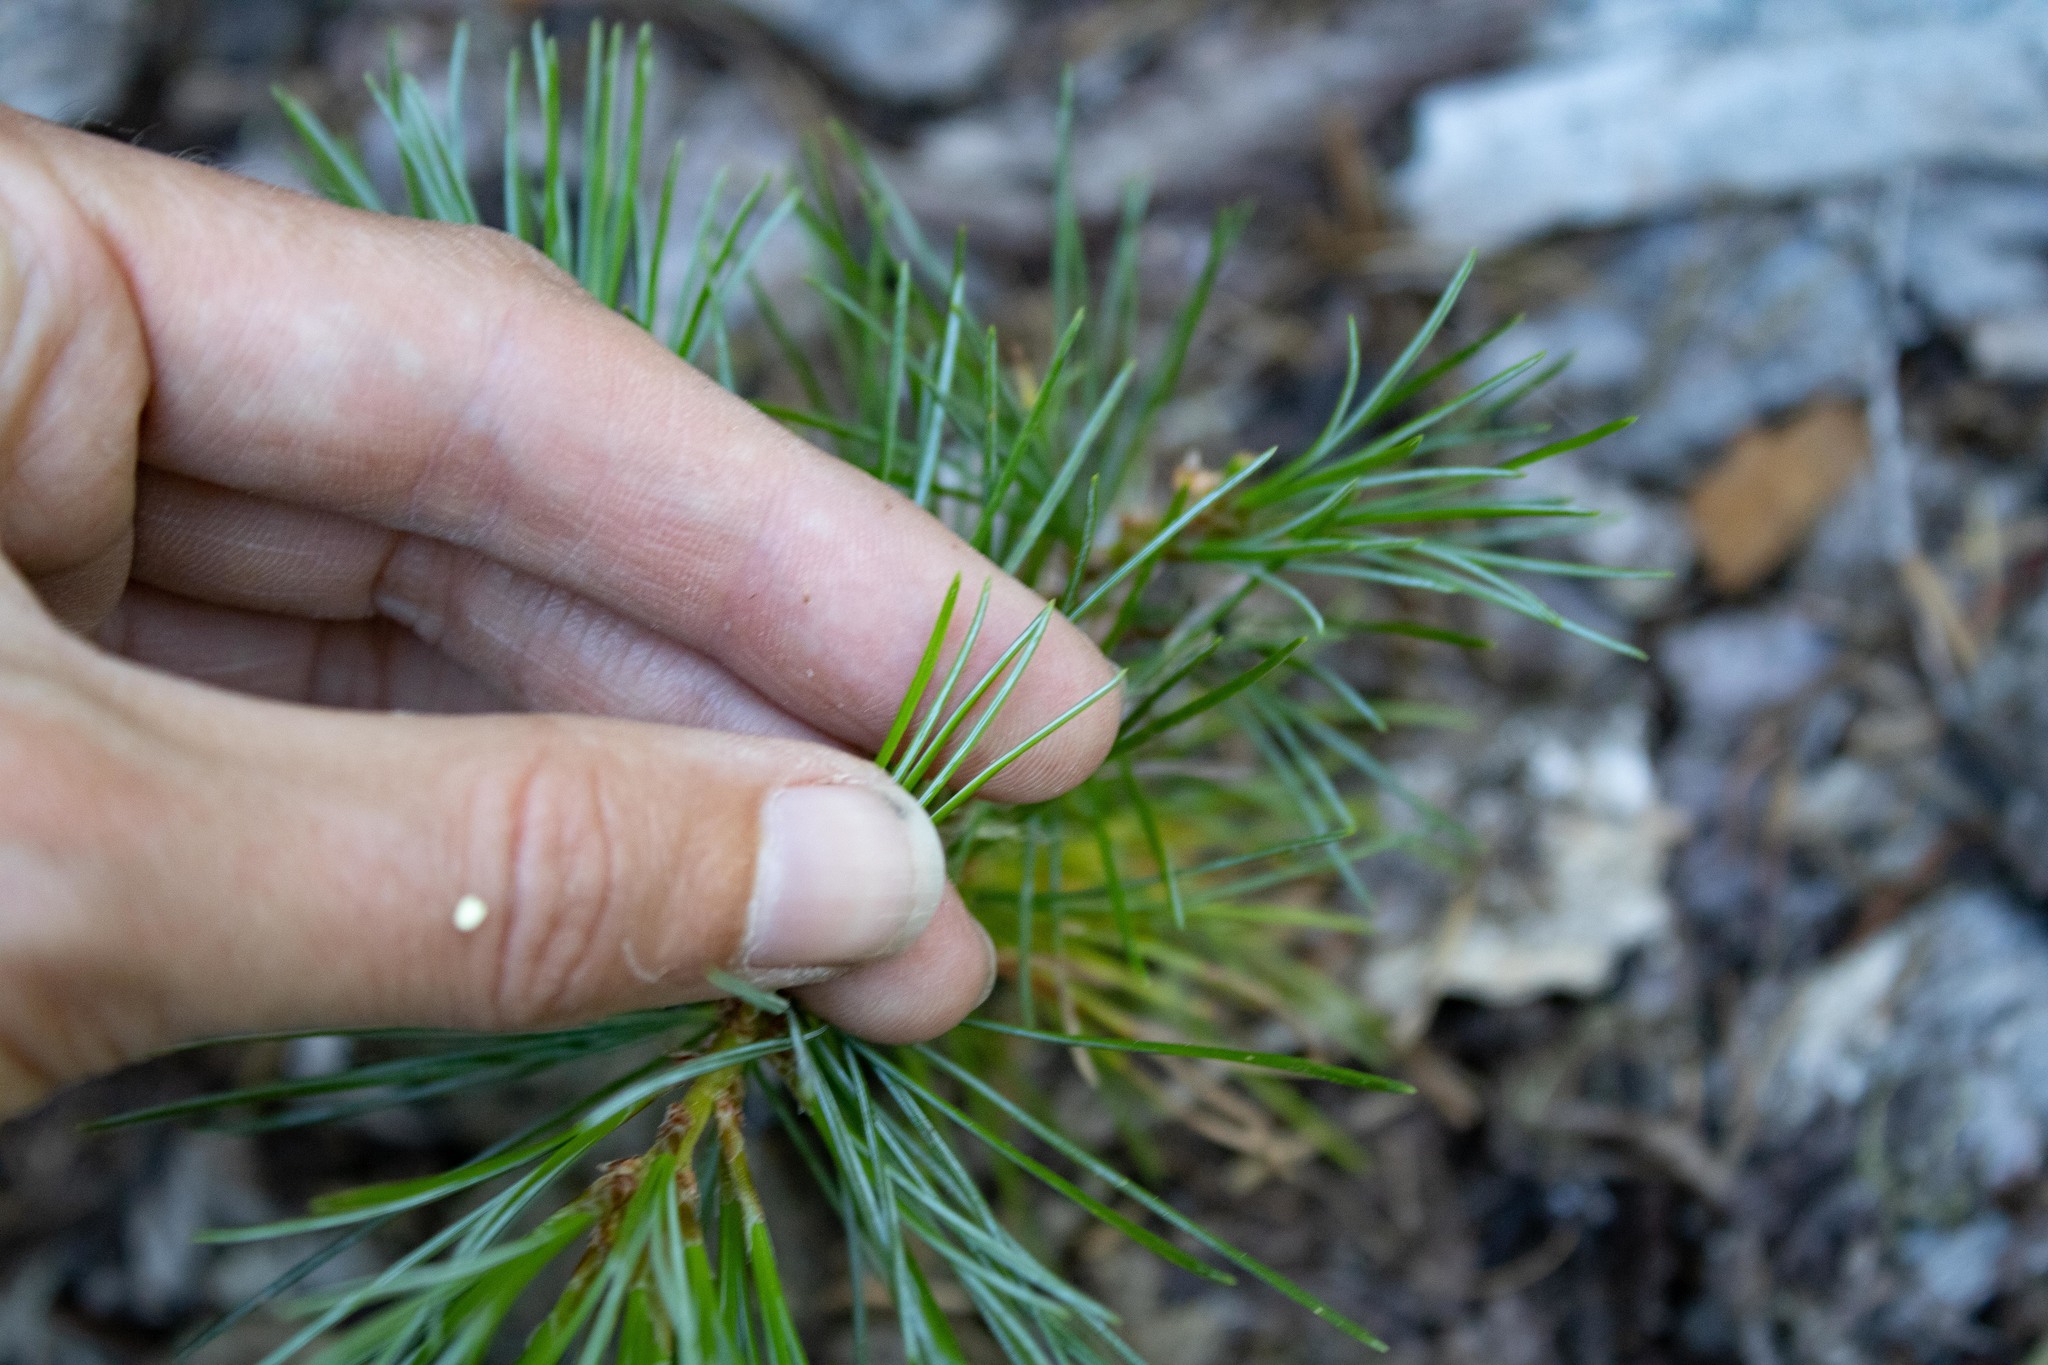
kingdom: Plantae
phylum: Tracheophyta
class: Pinopsida
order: Pinales
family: Pinaceae
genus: Pinus
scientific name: Pinus monticola
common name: Western white pine
